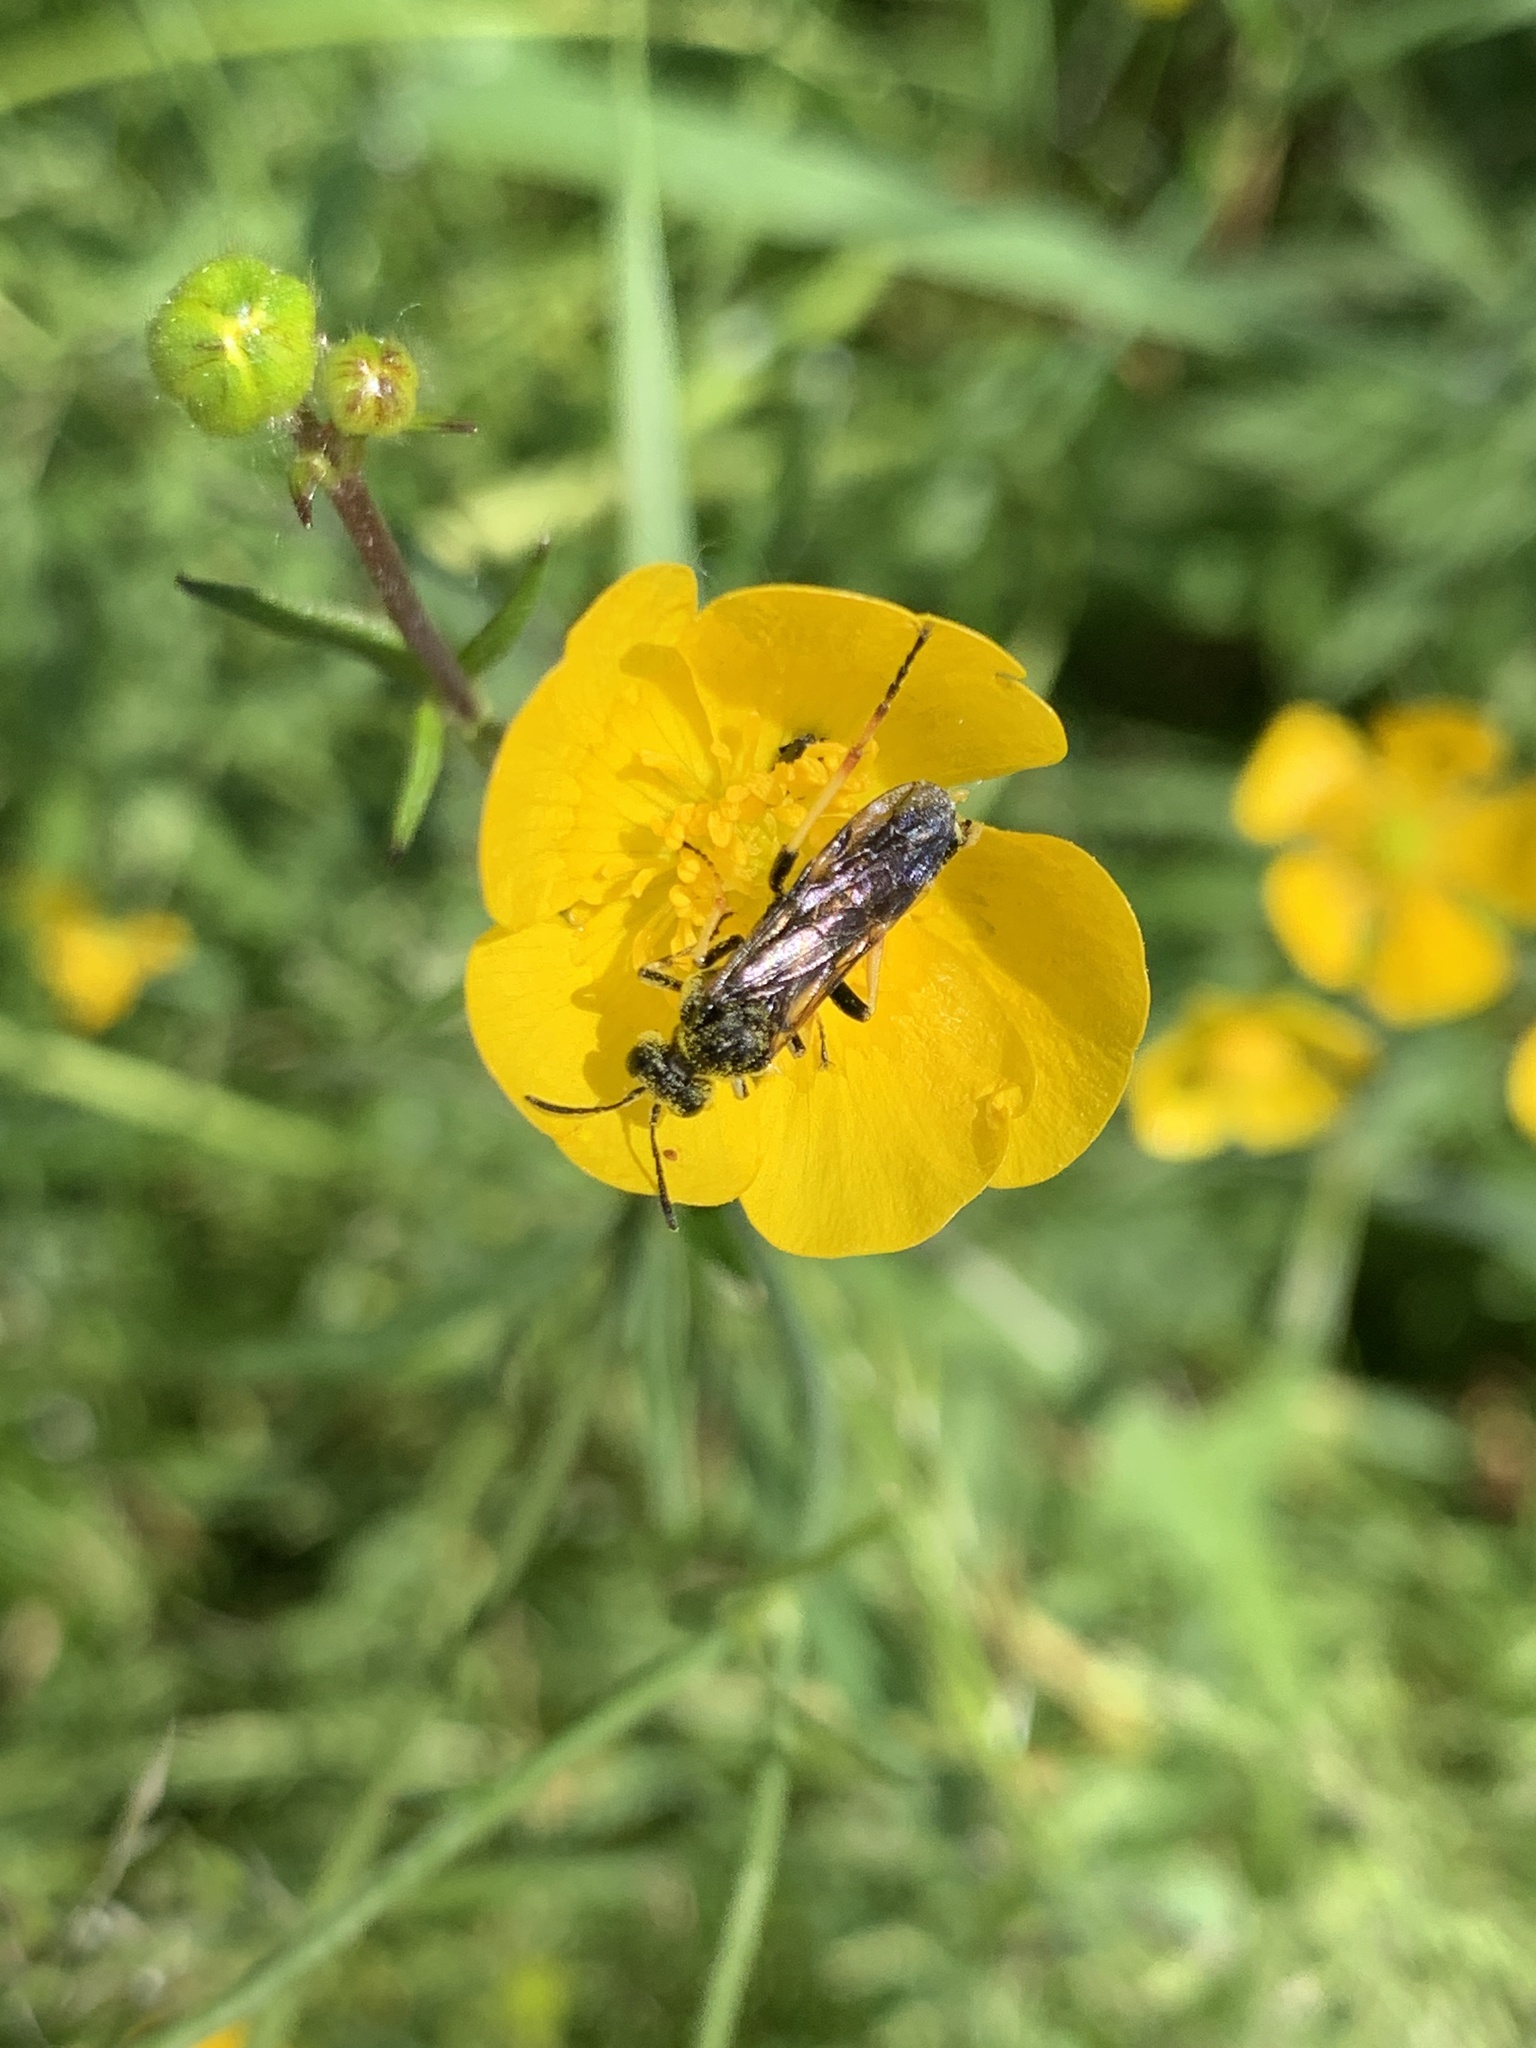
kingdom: Animalia
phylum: Arthropoda
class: Insecta
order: Hymenoptera
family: Tenthredinidae
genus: Tenthredo
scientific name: Tenthredo koehleri
